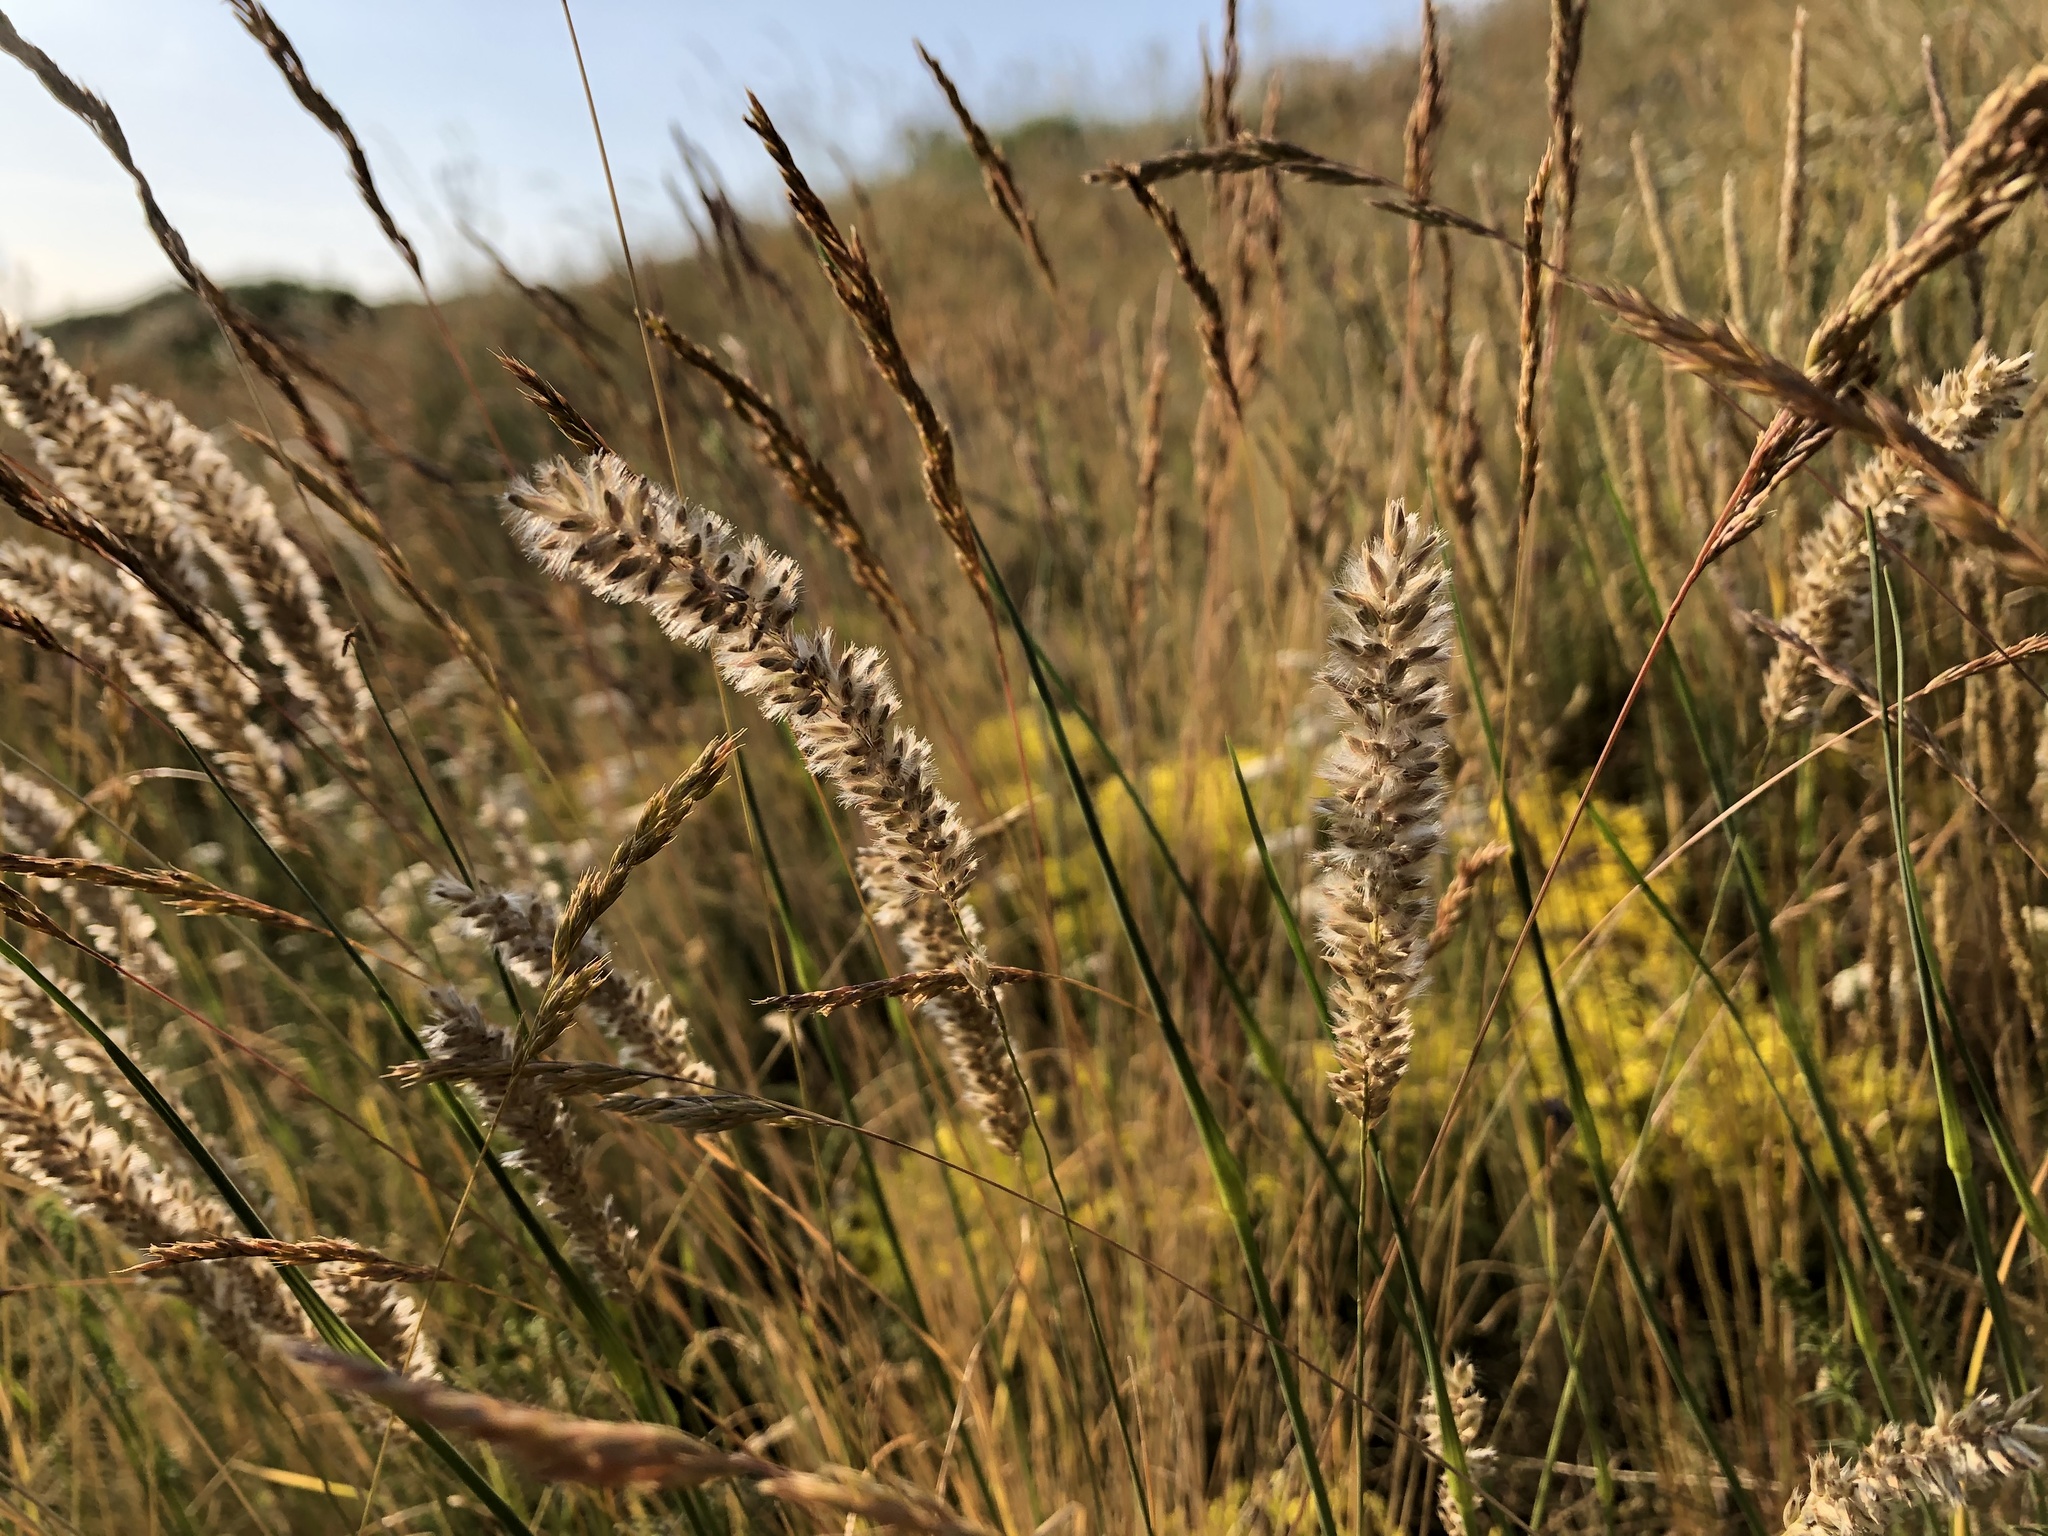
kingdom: Plantae
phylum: Tracheophyta
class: Liliopsida
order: Poales
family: Poaceae
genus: Melica
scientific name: Melica transsilvanica
